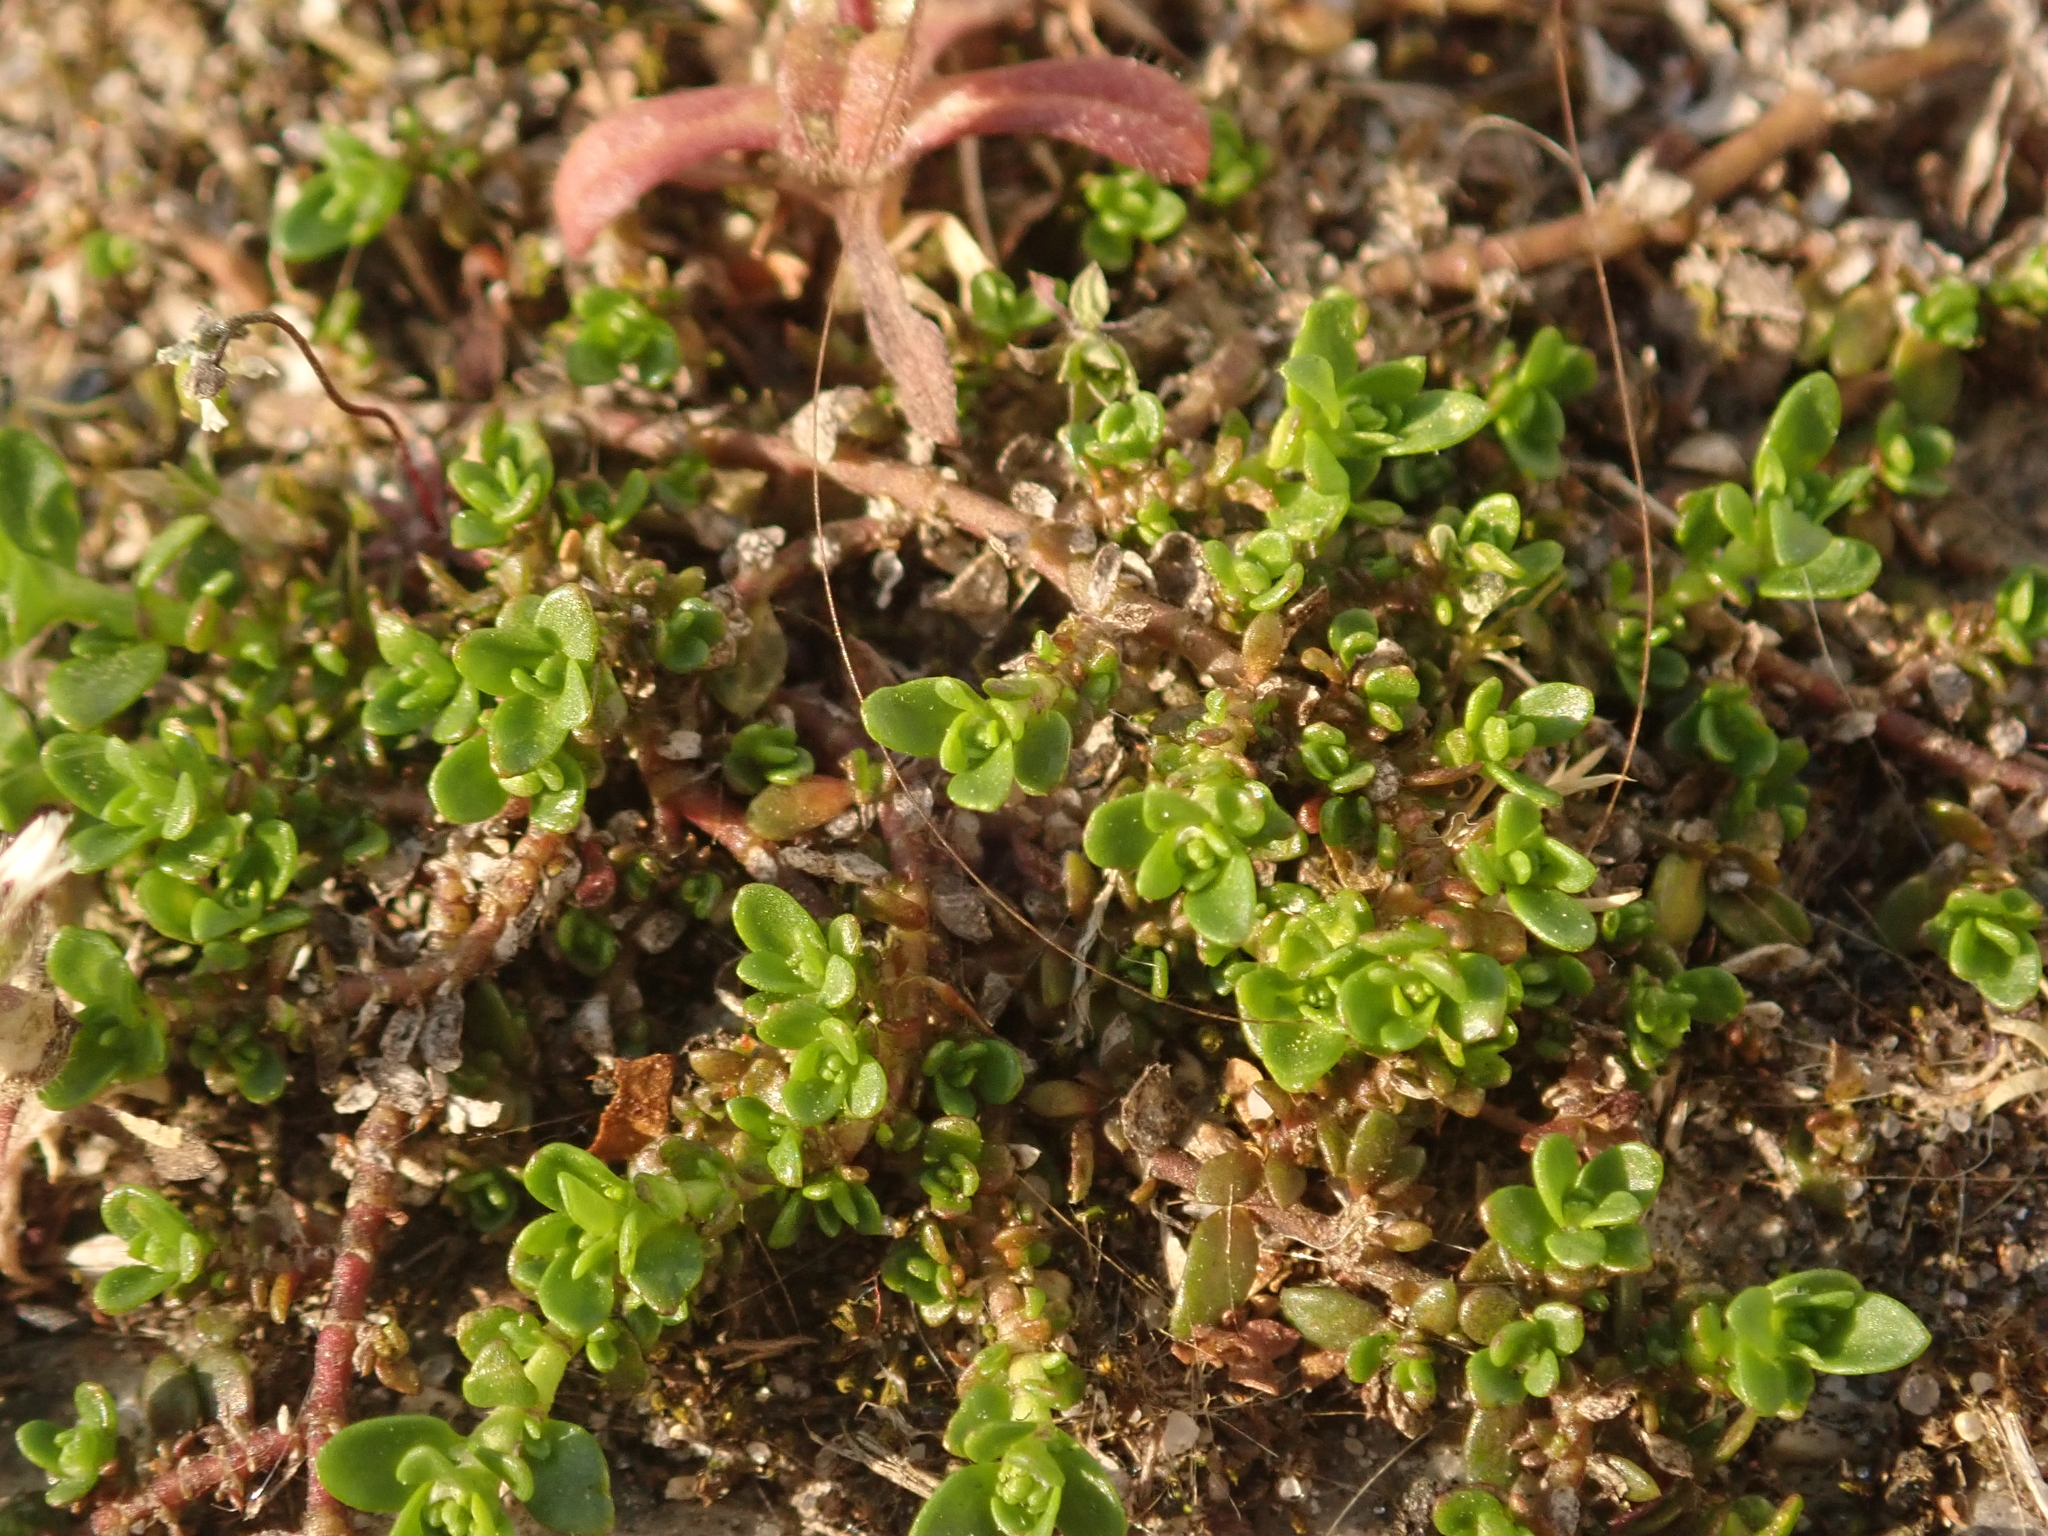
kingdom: Plantae
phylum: Tracheophyta
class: Magnoliopsida
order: Caryophyllales
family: Caryophyllaceae
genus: Herniaria
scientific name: Herniaria glabra
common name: Smooth rupturewort
